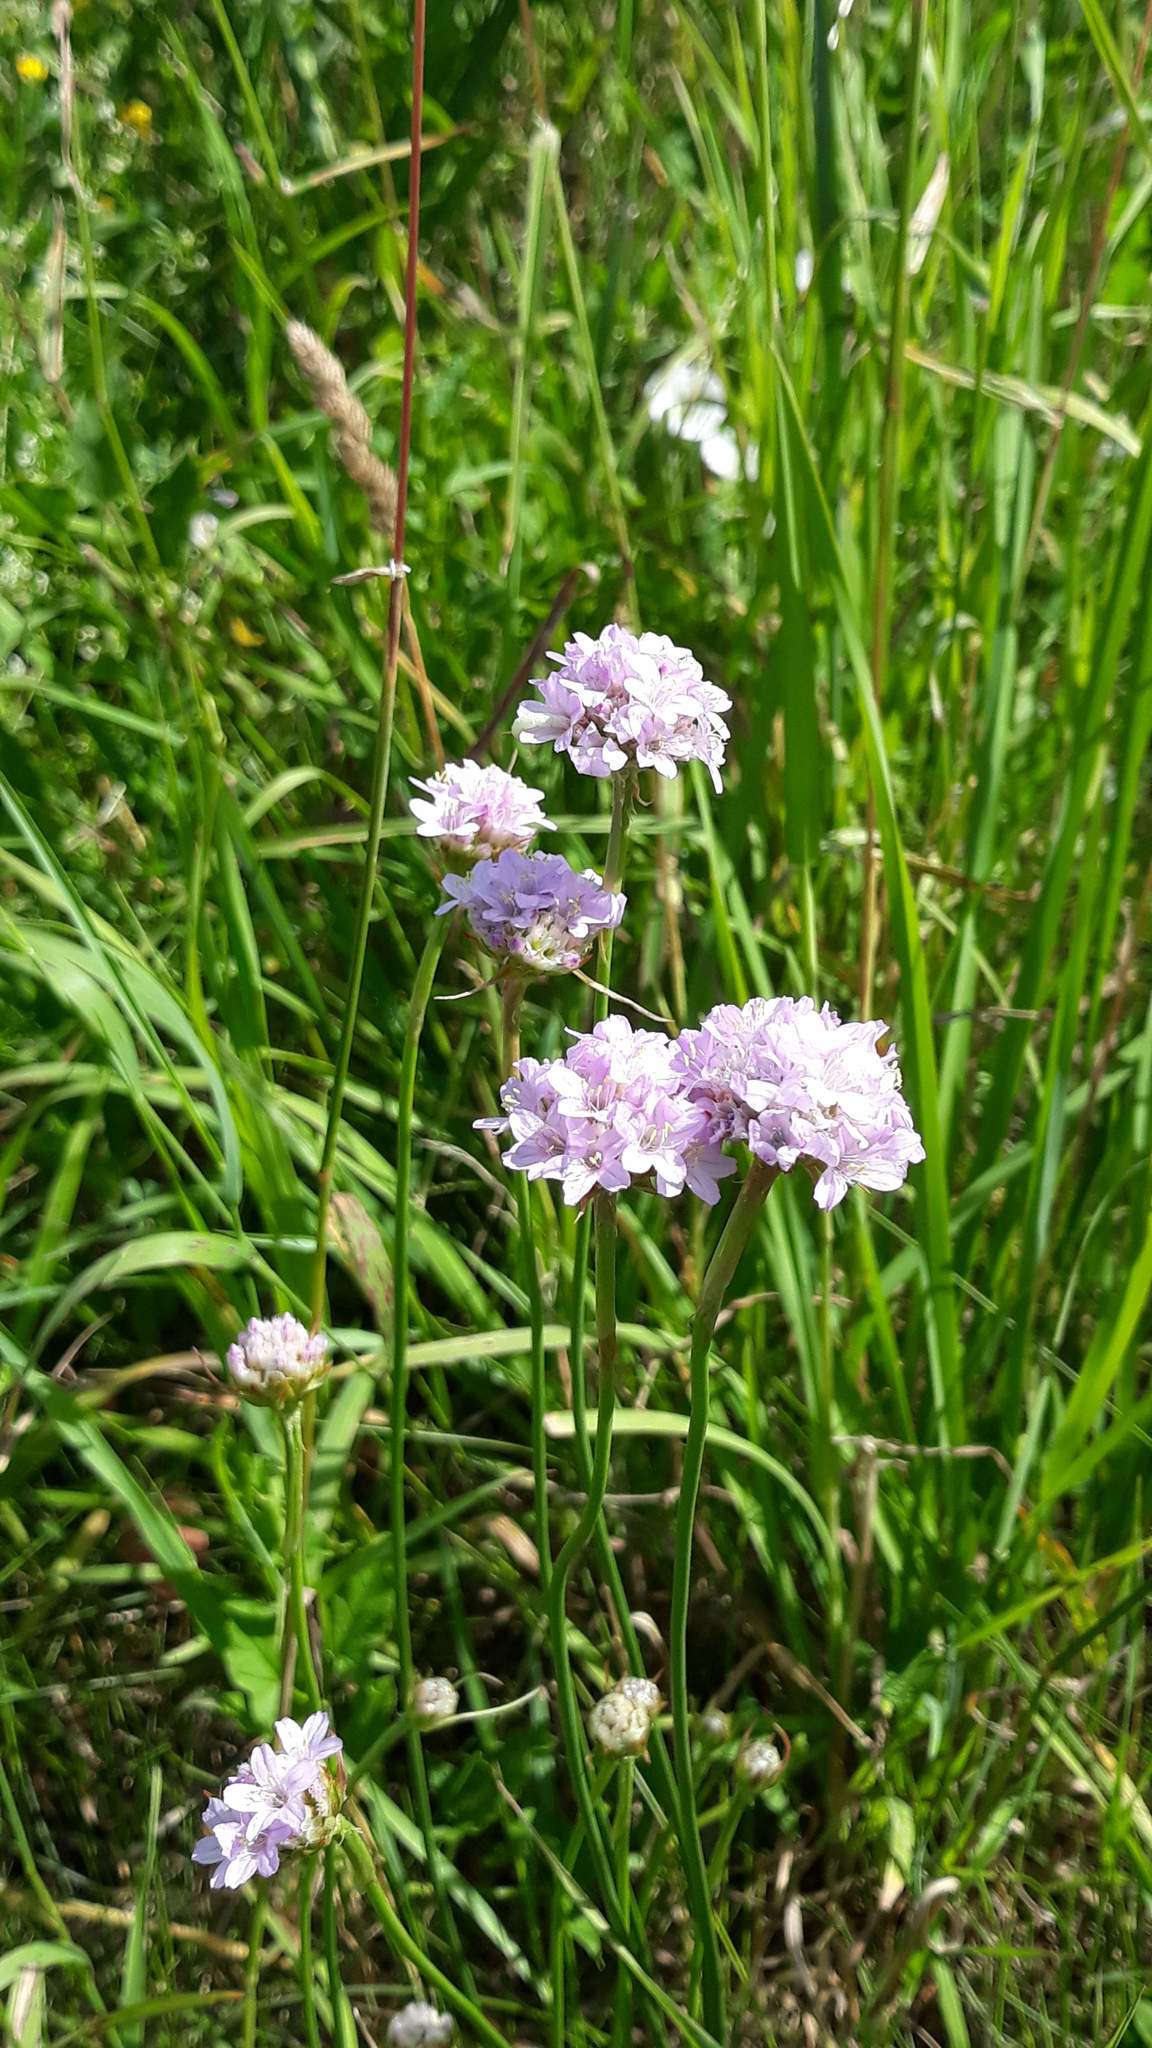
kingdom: Plantae
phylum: Tracheophyta
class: Magnoliopsida
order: Caryophyllales
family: Plumbaginaceae
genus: Armeria
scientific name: Armeria maritima
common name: Thrift
